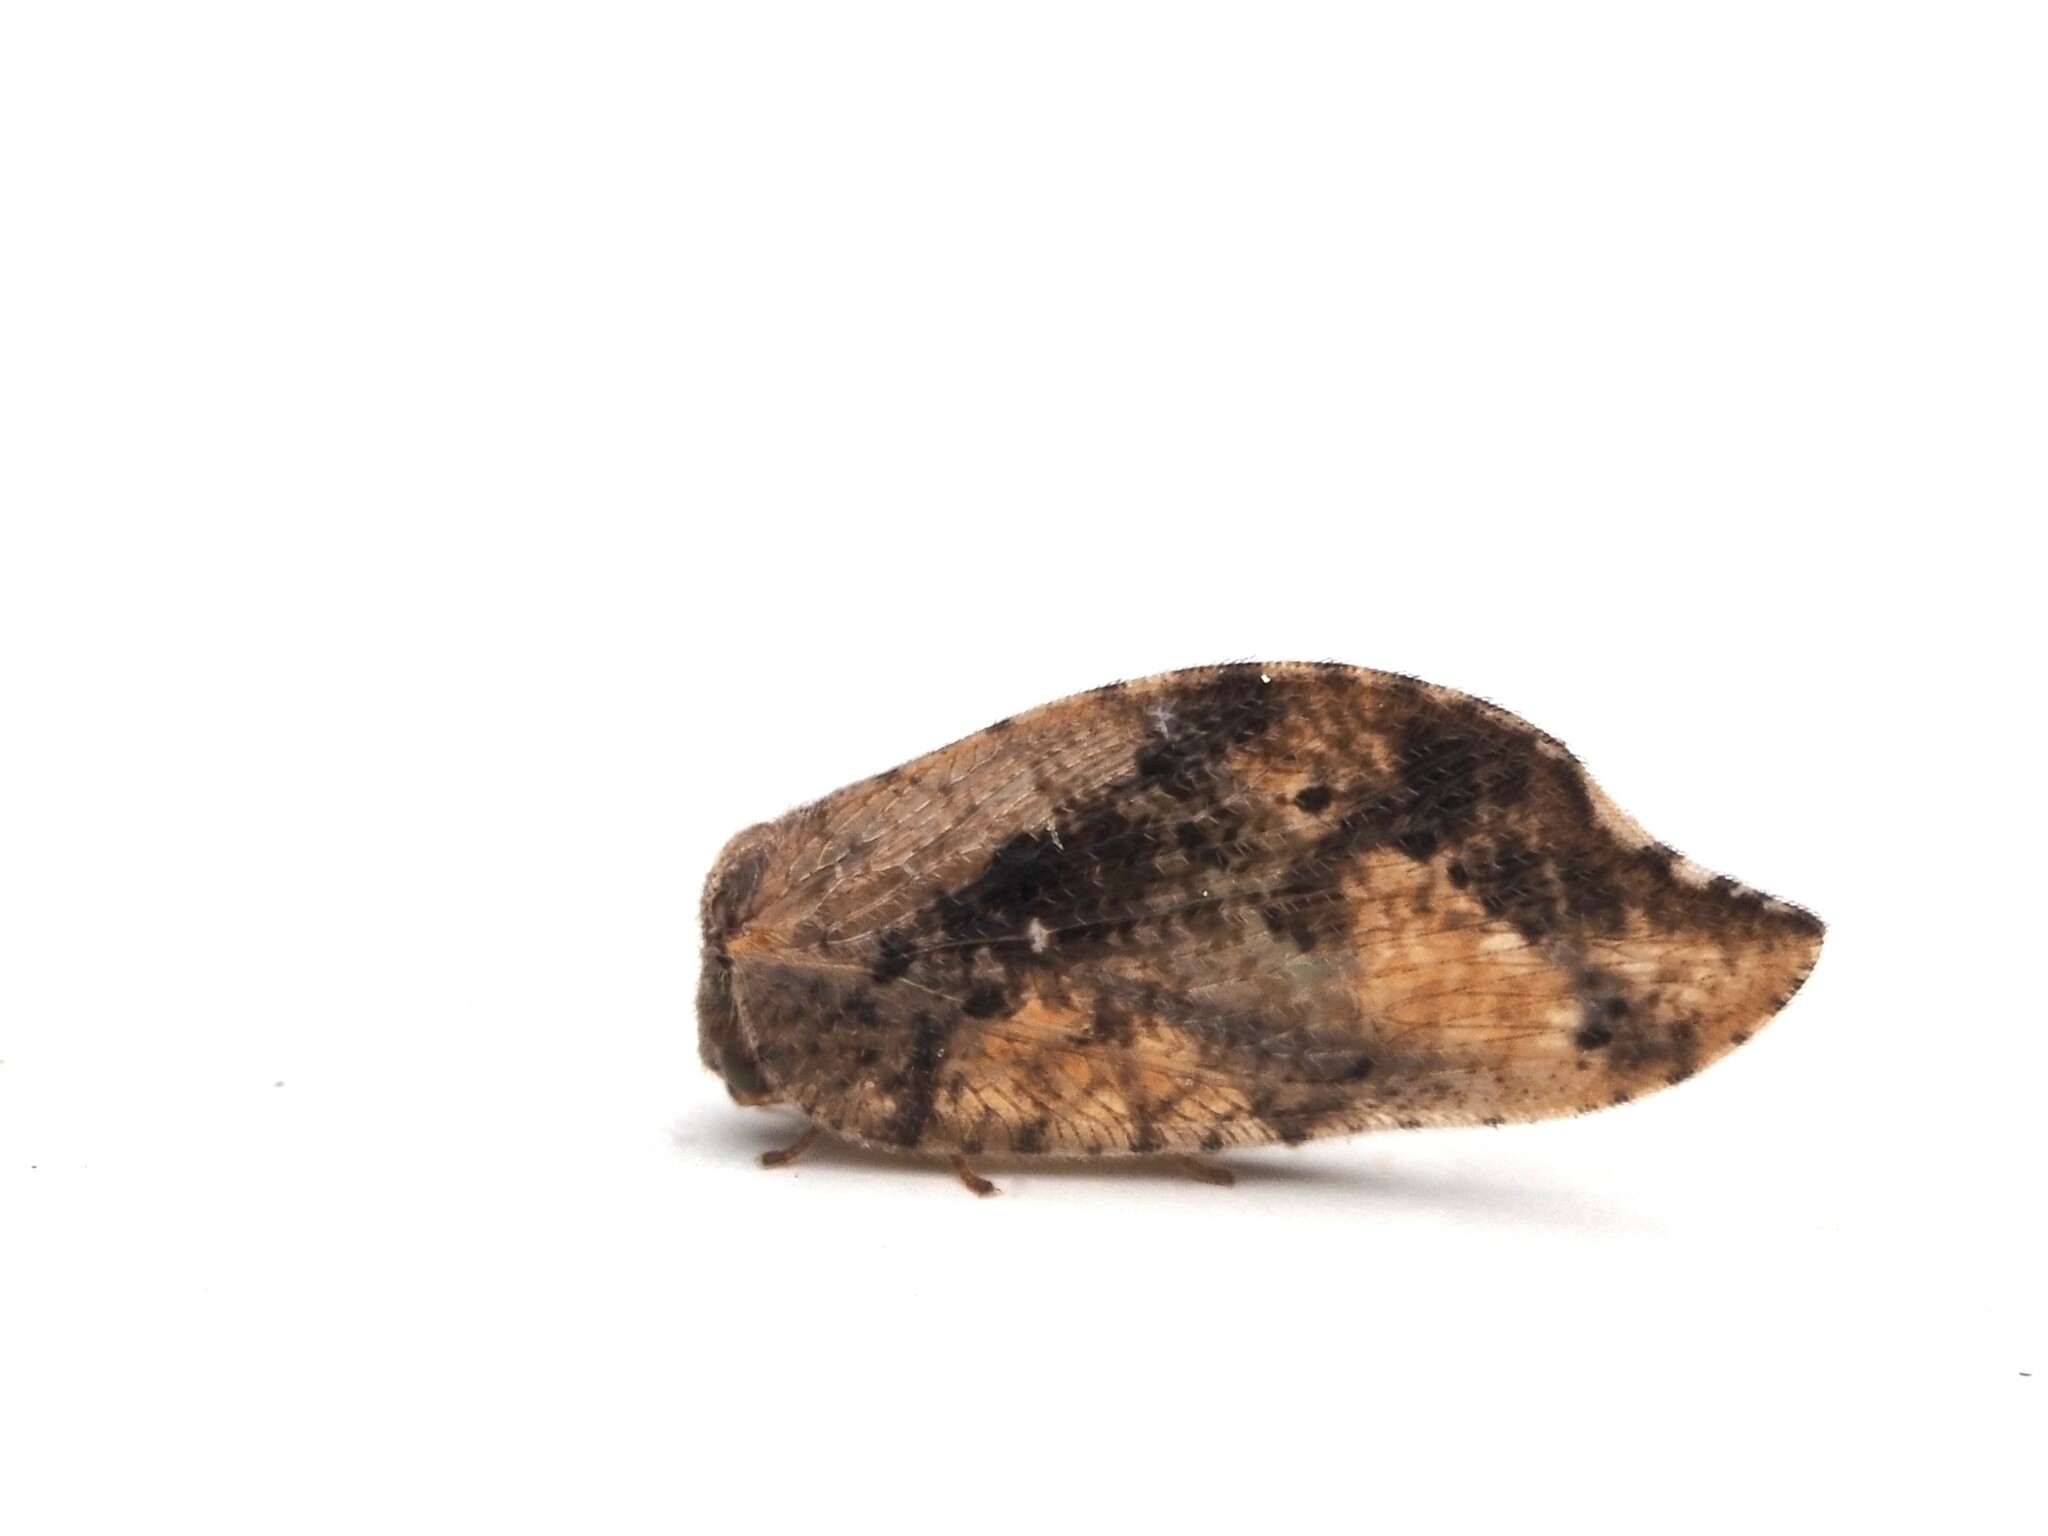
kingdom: Animalia
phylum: Arthropoda
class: Insecta
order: Neuroptera
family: Hemerobiidae
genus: Drepanacra
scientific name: Drepanacra binocula
